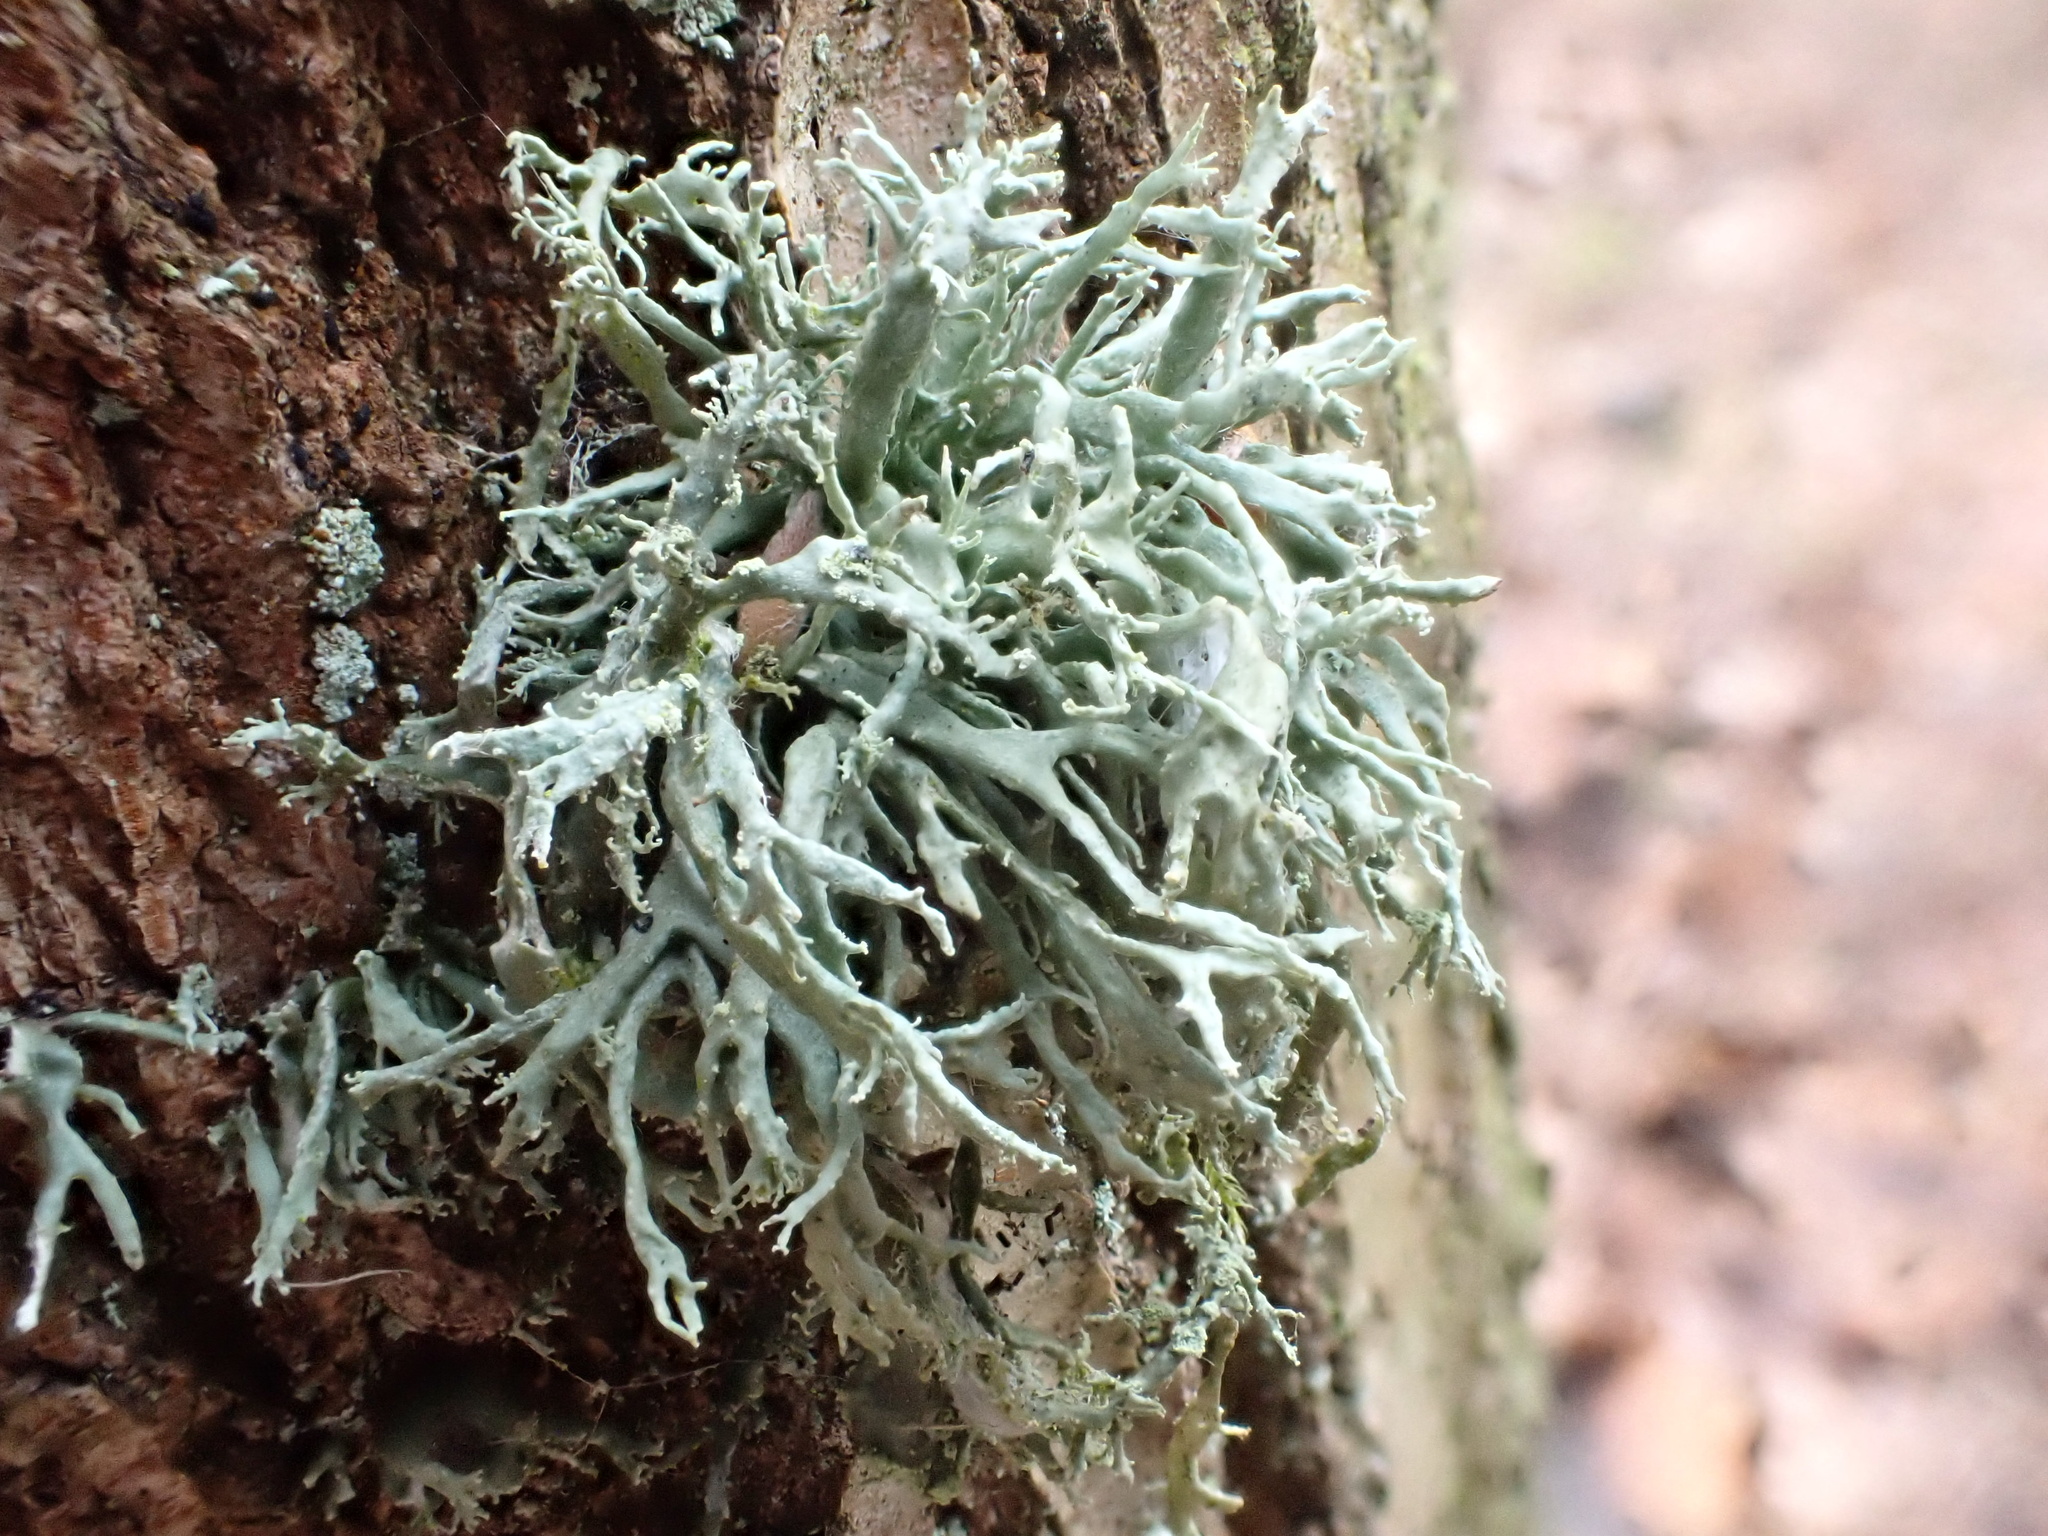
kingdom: Fungi
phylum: Ascomycota
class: Lecanoromycetes
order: Lecanorales
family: Ramalinaceae
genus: Ramalina
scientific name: Ramalina farinacea
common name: Farinose cartilage lichen
